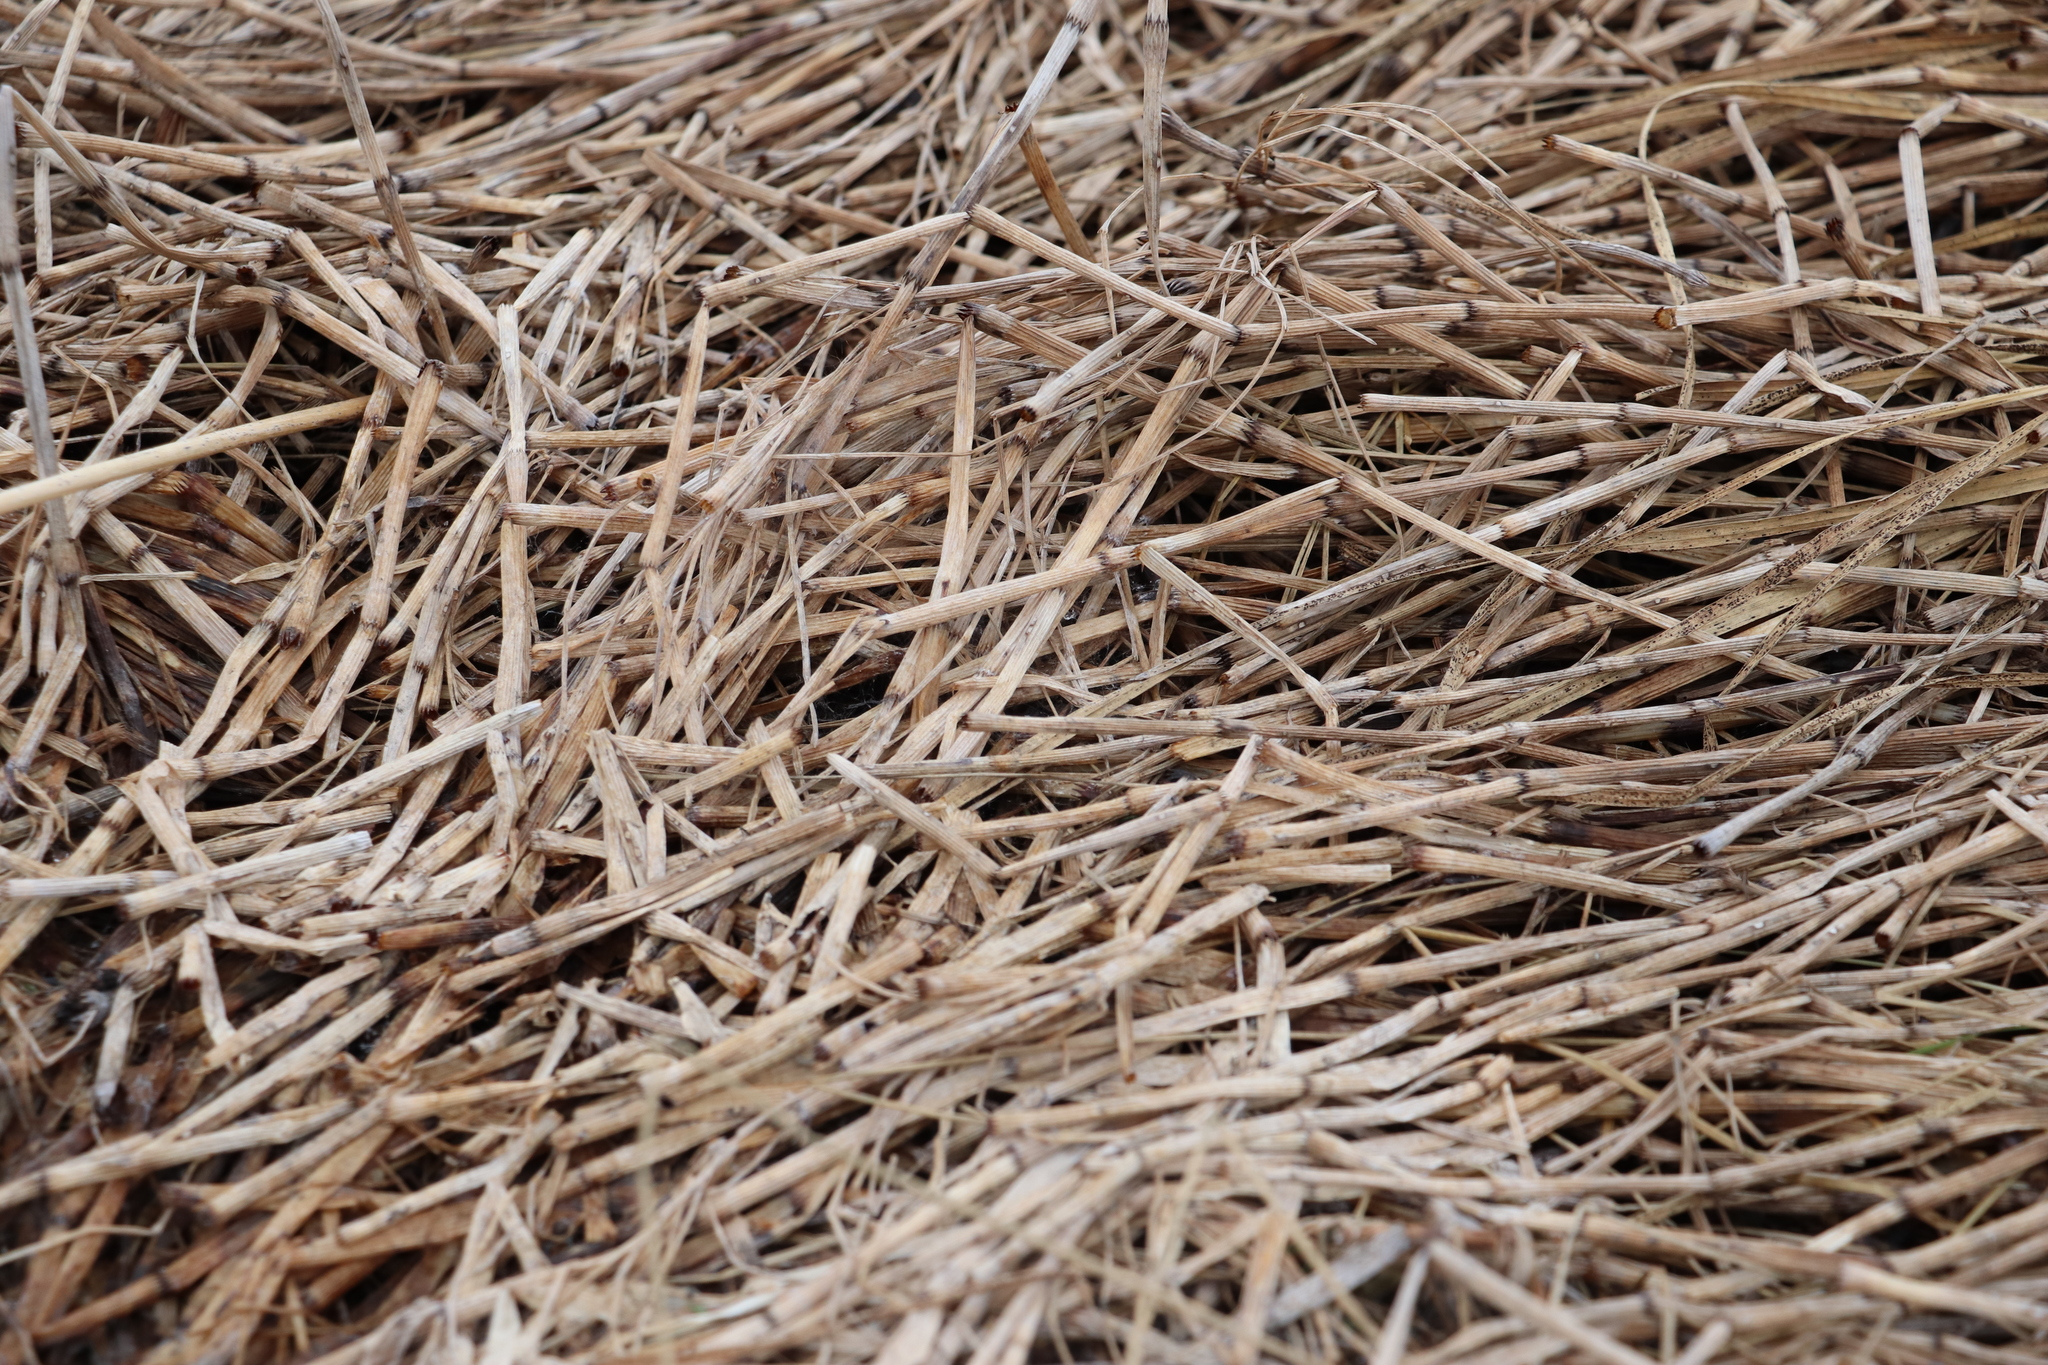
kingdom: Plantae
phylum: Tracheophyta
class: Polypodiopsida
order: Equisetales
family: Equisetaceae
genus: Equisetum
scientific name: Equisetum fluviatile
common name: Water horsetail
